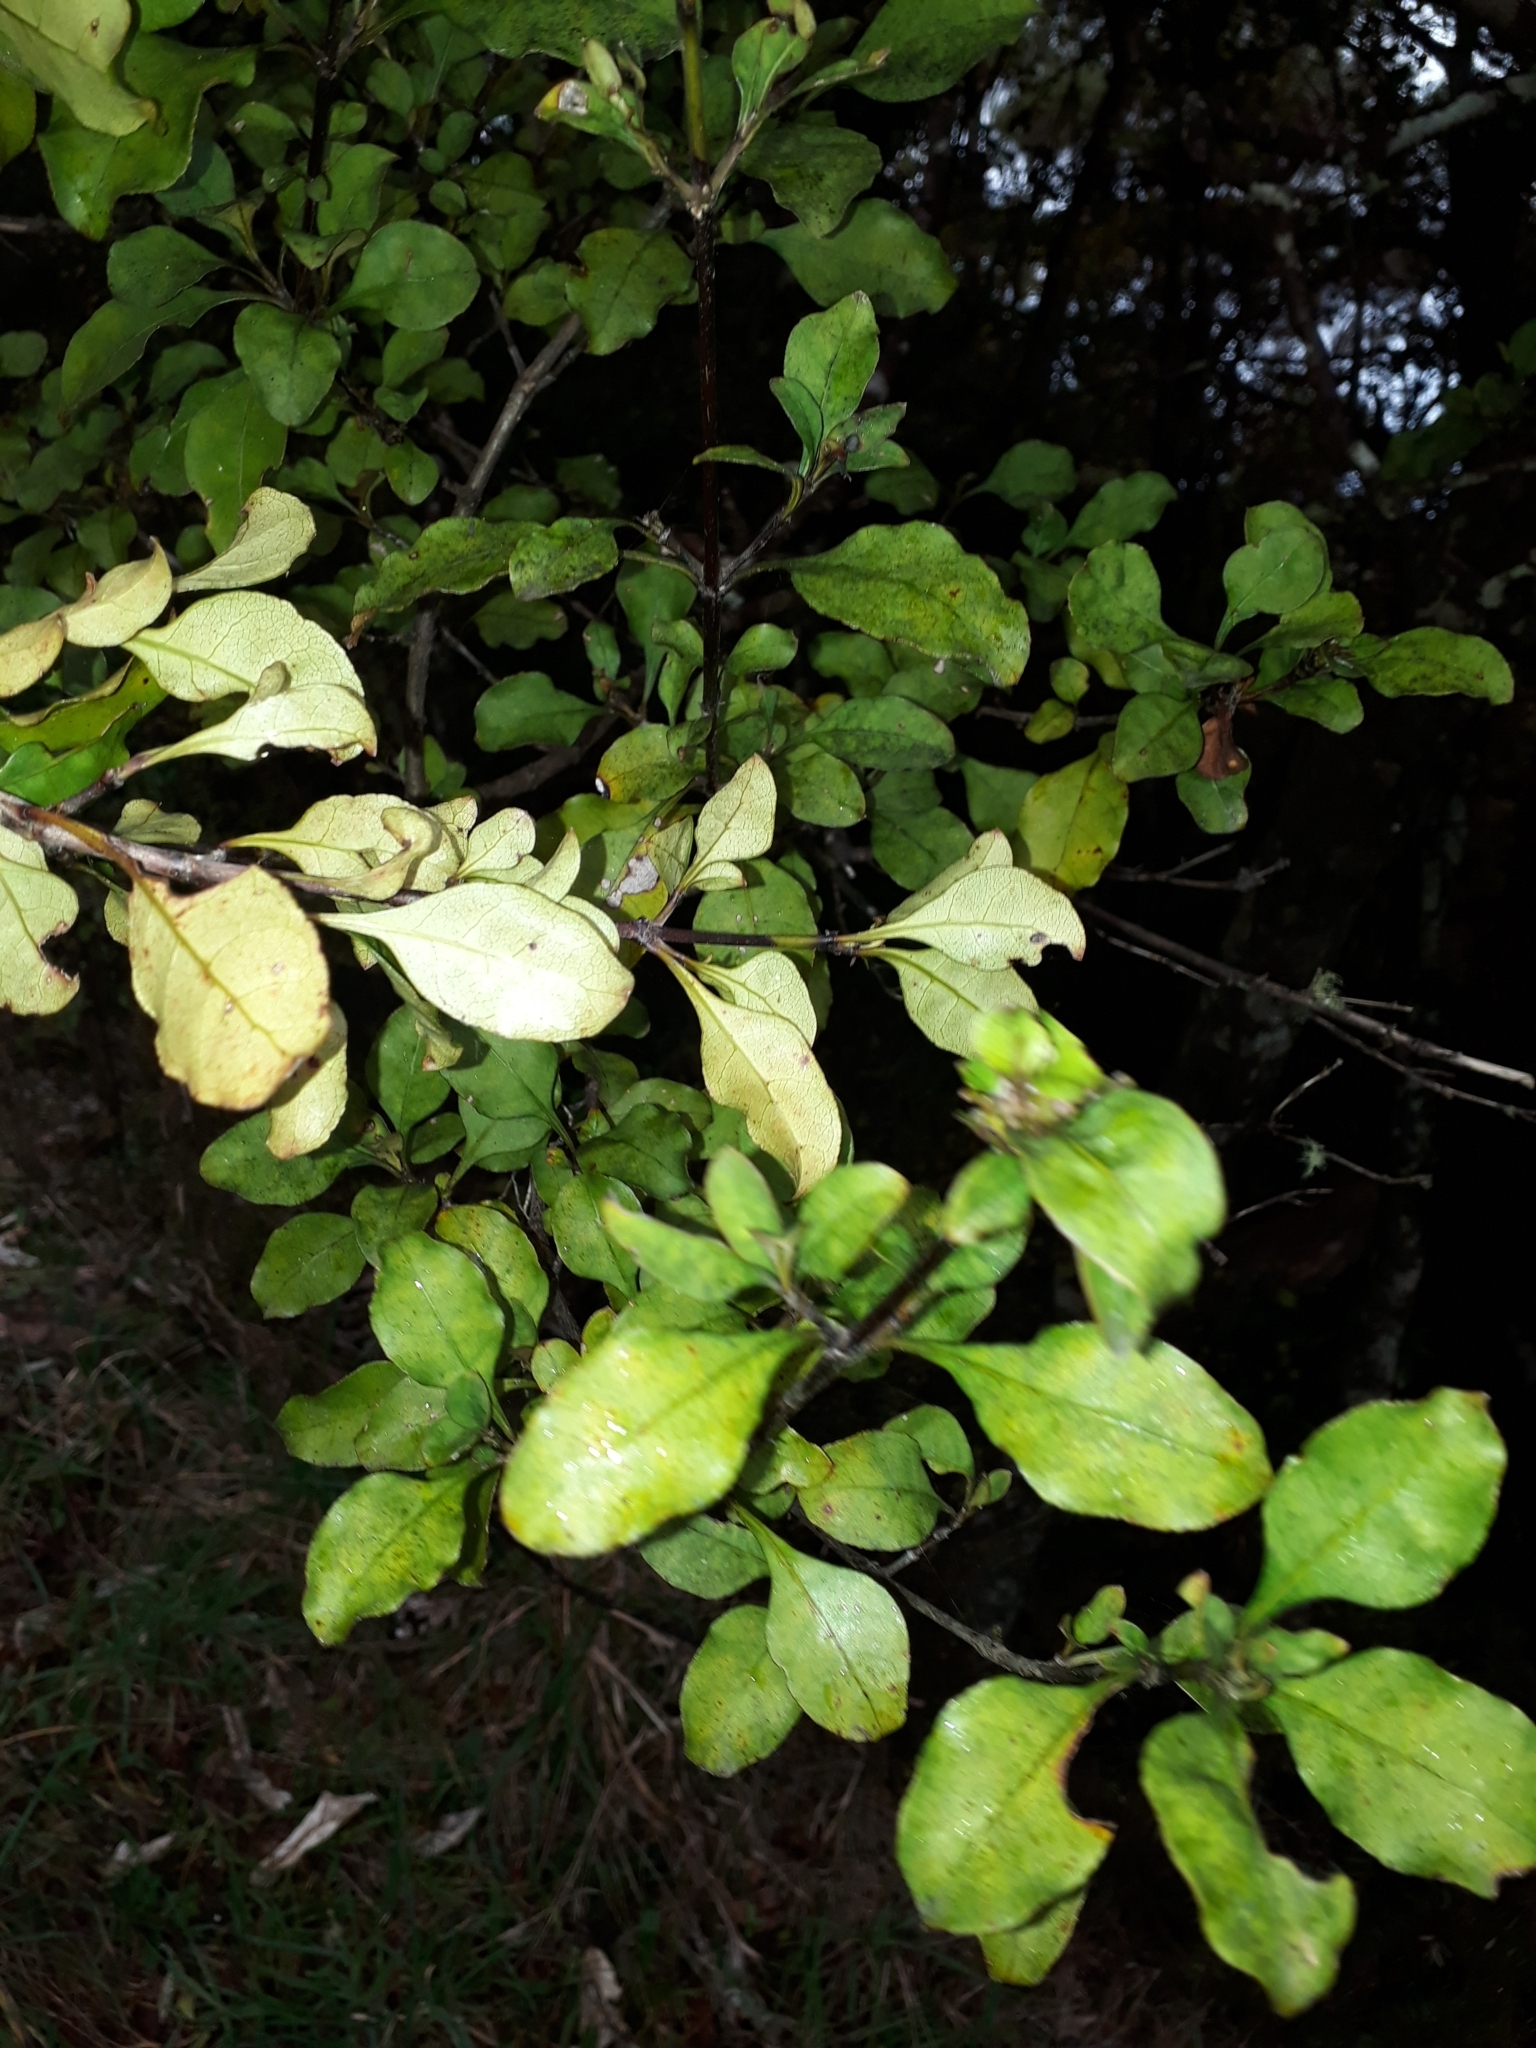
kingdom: Plantae
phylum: Tracheophyta
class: Magnoliopsida
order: Gentianales
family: Rubiaceae
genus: Coprosma
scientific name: Coprosma arborea
